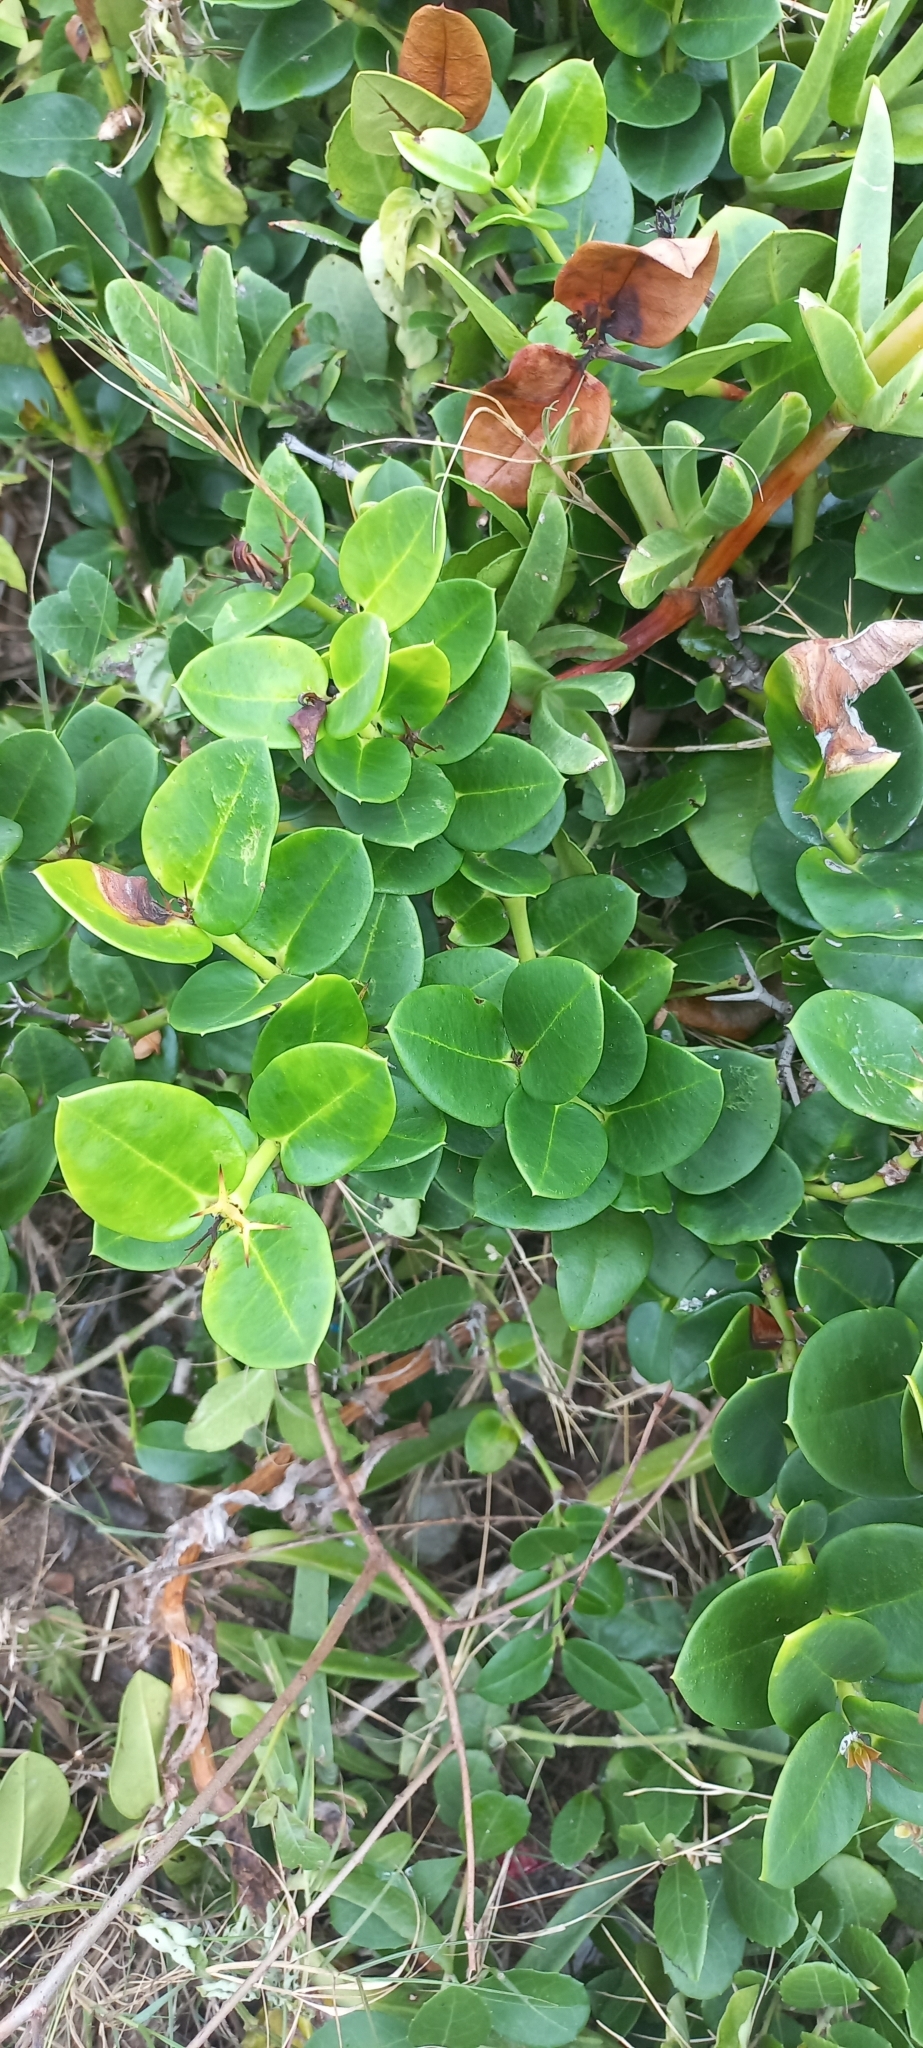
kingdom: Plantae
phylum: Tracheophyta
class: Magnoliopsida
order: Gentianales
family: Apocynaceae
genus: Carissa
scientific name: Carissa macrocarpa
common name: Natal plum
